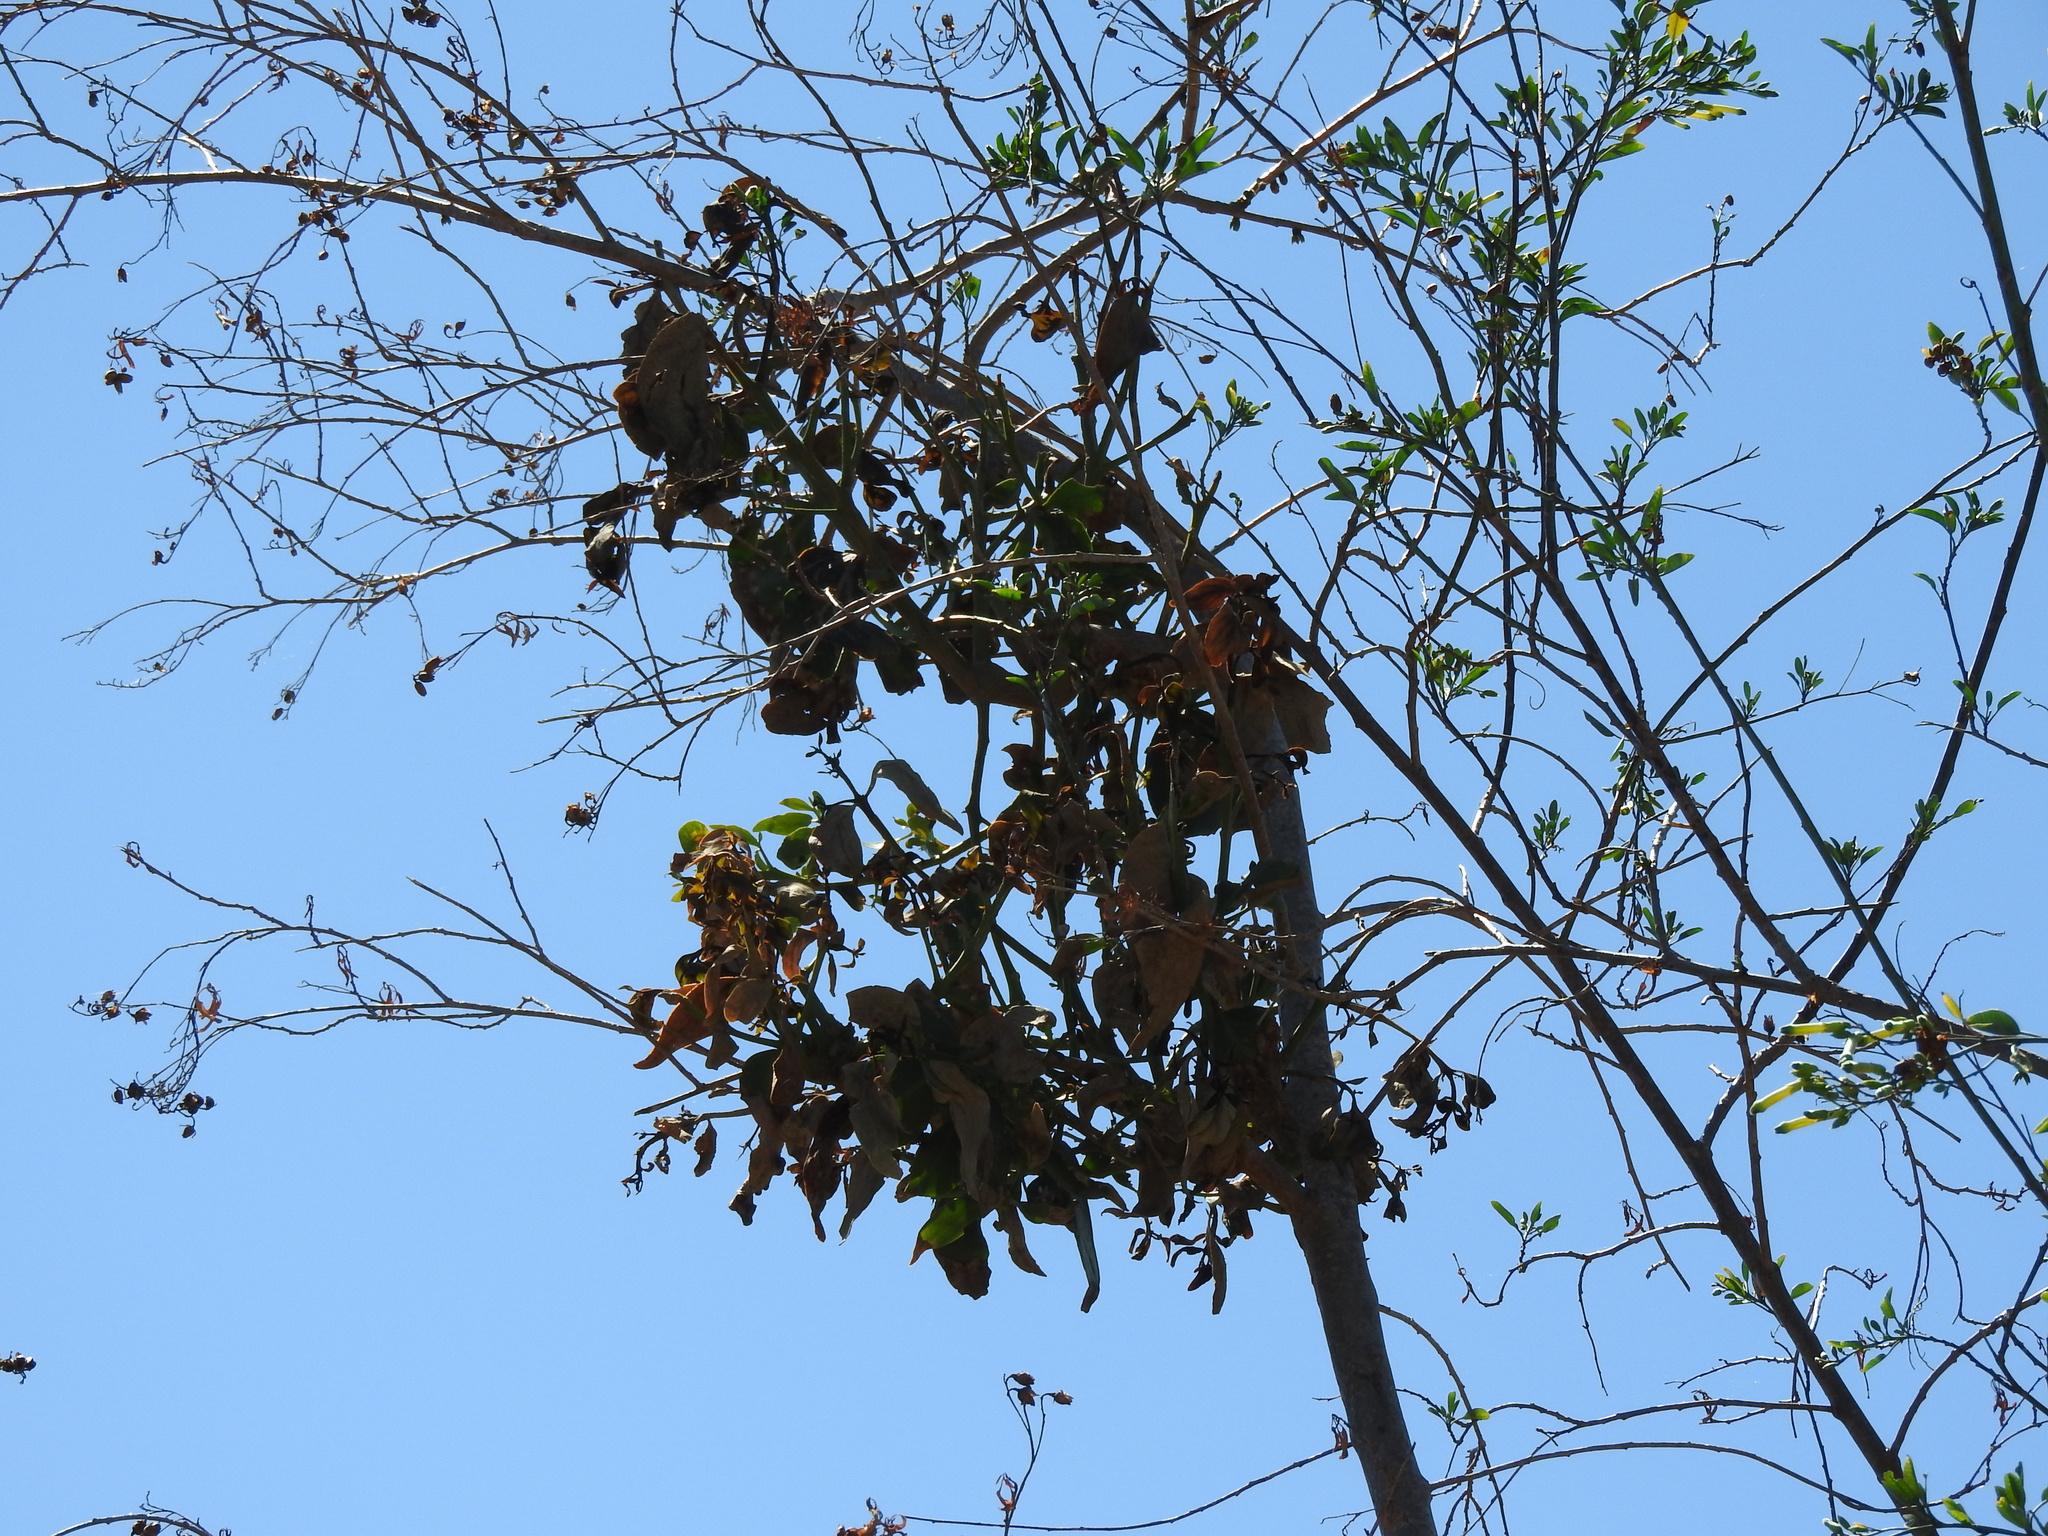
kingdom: Plantae
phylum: Tracheophyta
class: Magnoliopsida
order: Santalales
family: Loranthaceae
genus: Psittacanthus
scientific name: Psittacanthus calyculatus
